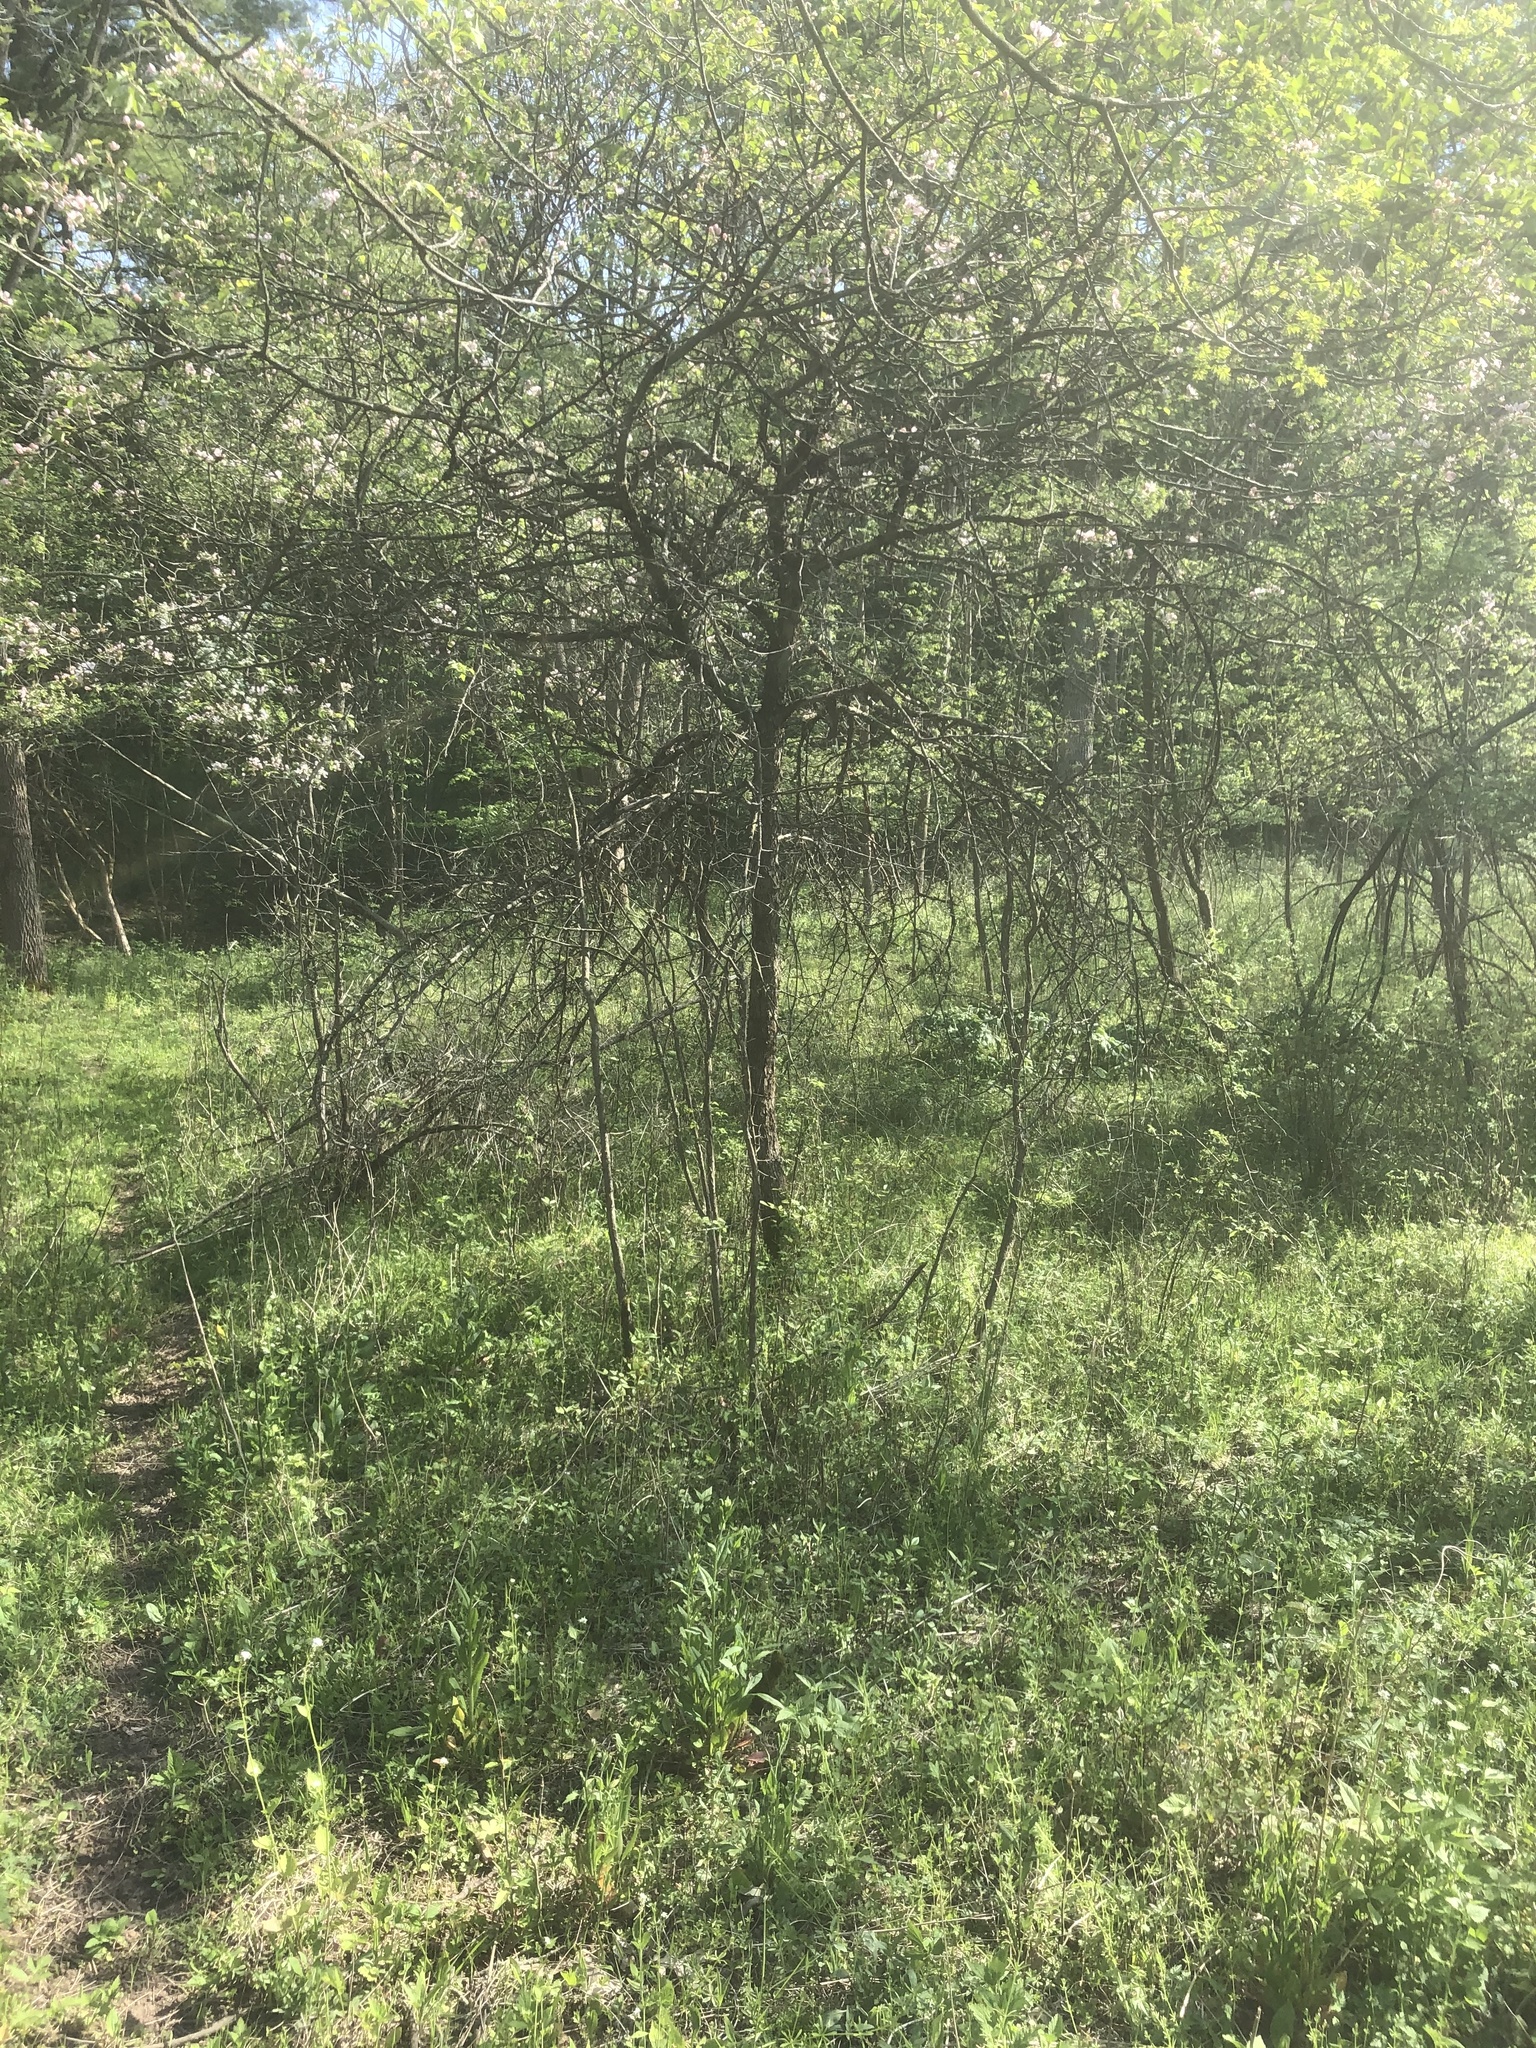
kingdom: Plantae
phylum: Tracheophyta
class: Magnoliopsida
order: Rosales
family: Rosaceae
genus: Malus
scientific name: Malus coronaria
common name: Sweet crab apple
